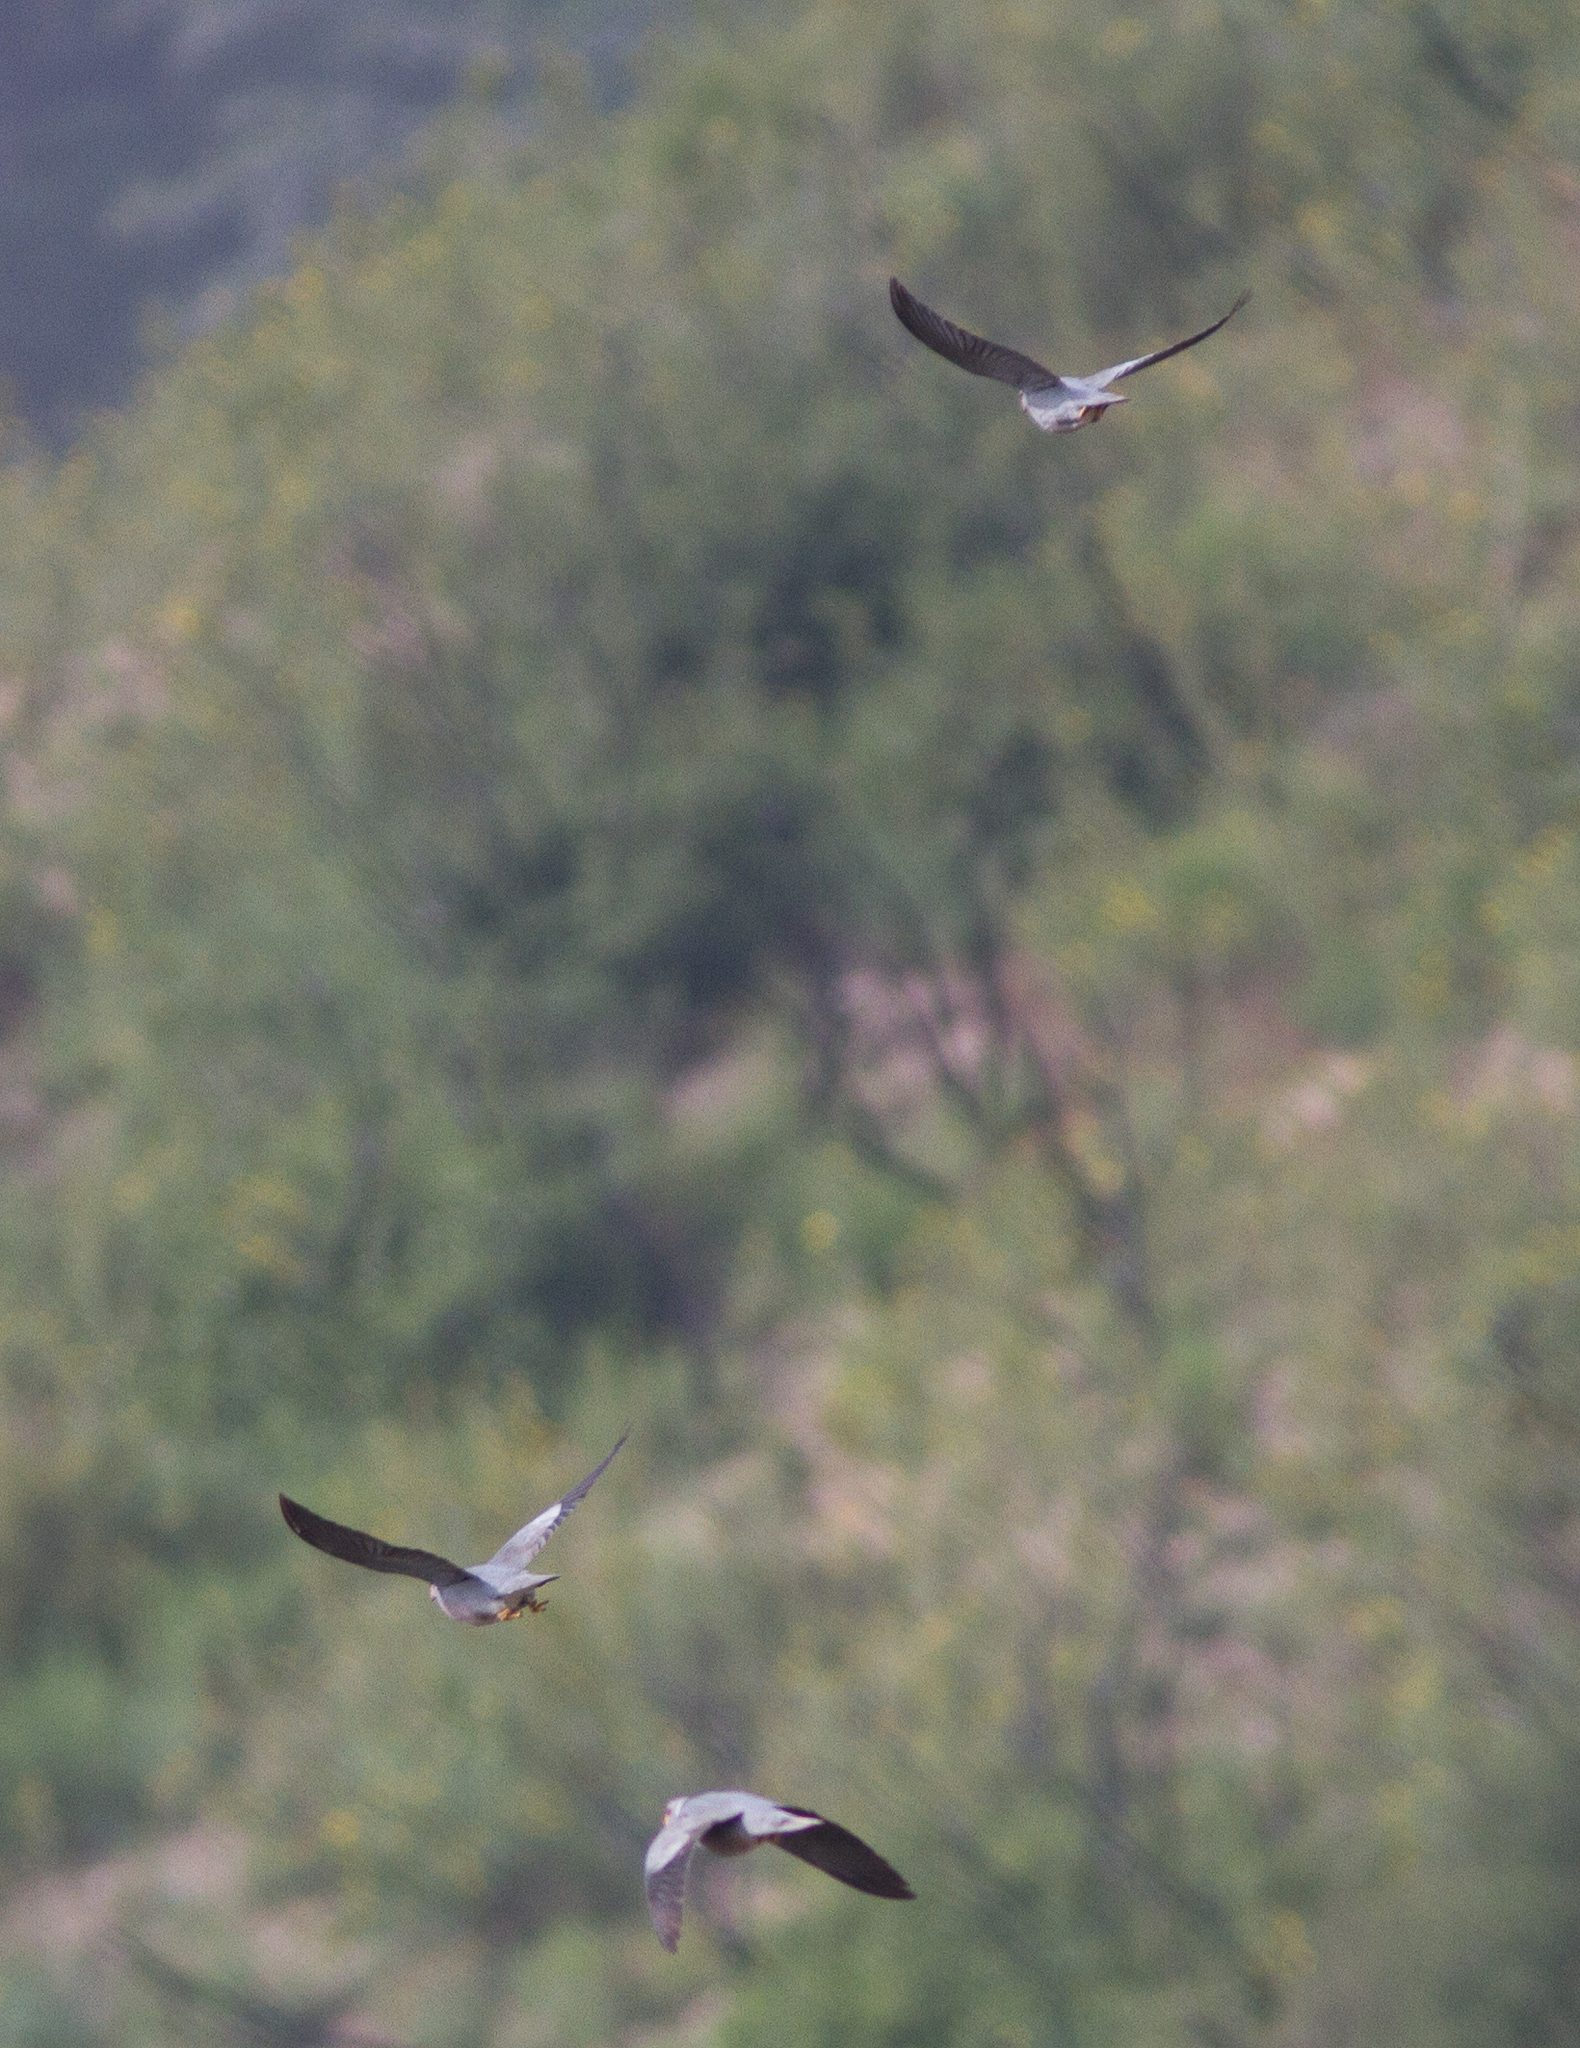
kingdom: Animalia
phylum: Chordata
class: Aves
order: Columbiformes
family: Columbidae
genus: Patagioenas
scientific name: Patagioenas fasciata
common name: Band-tailed pigeon
